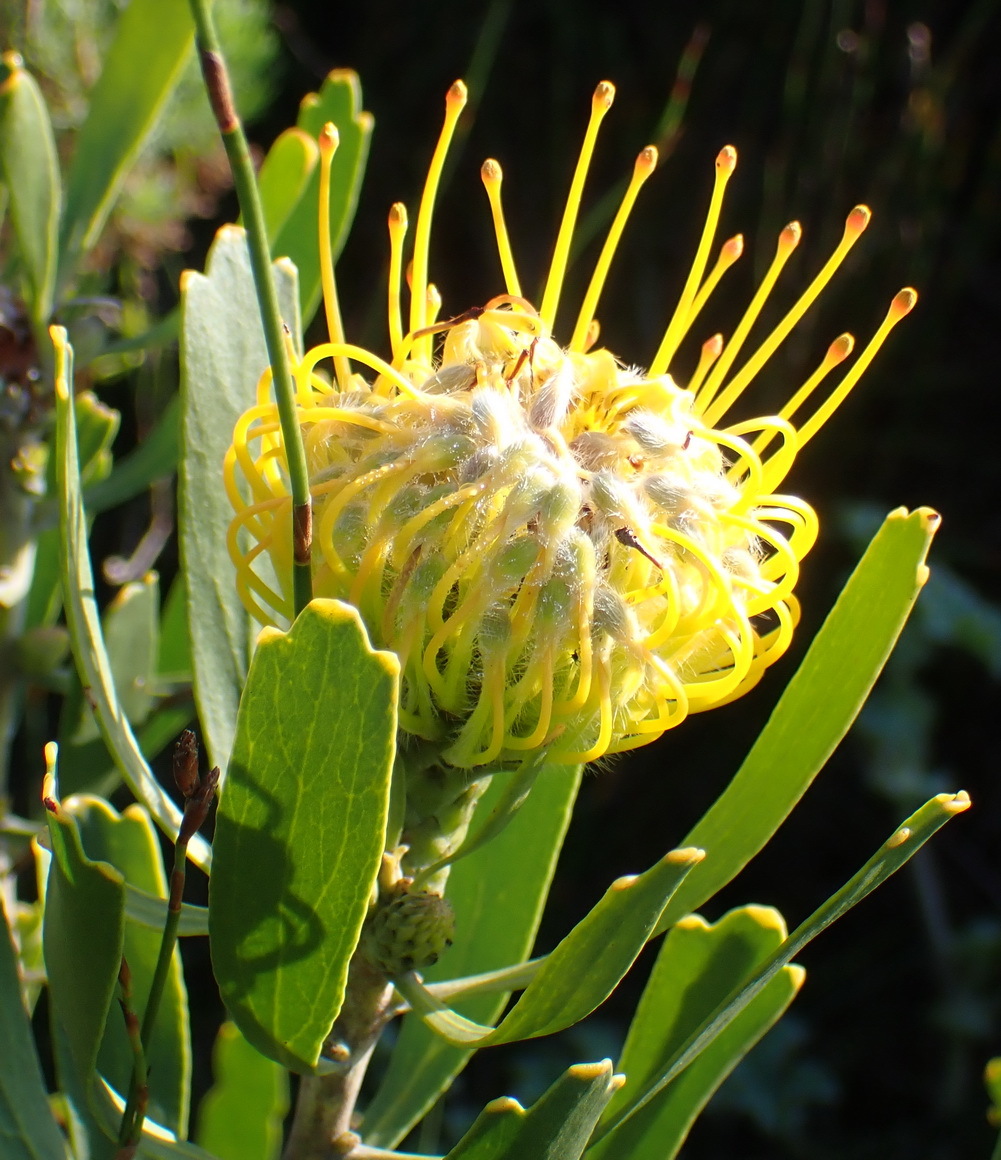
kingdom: Plantae
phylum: Tracheophyta
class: Magnoliopsida
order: Proteales
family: Proteaceae
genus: Leucospermum
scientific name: Leucospermum cuneiforme
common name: Common pincushion
